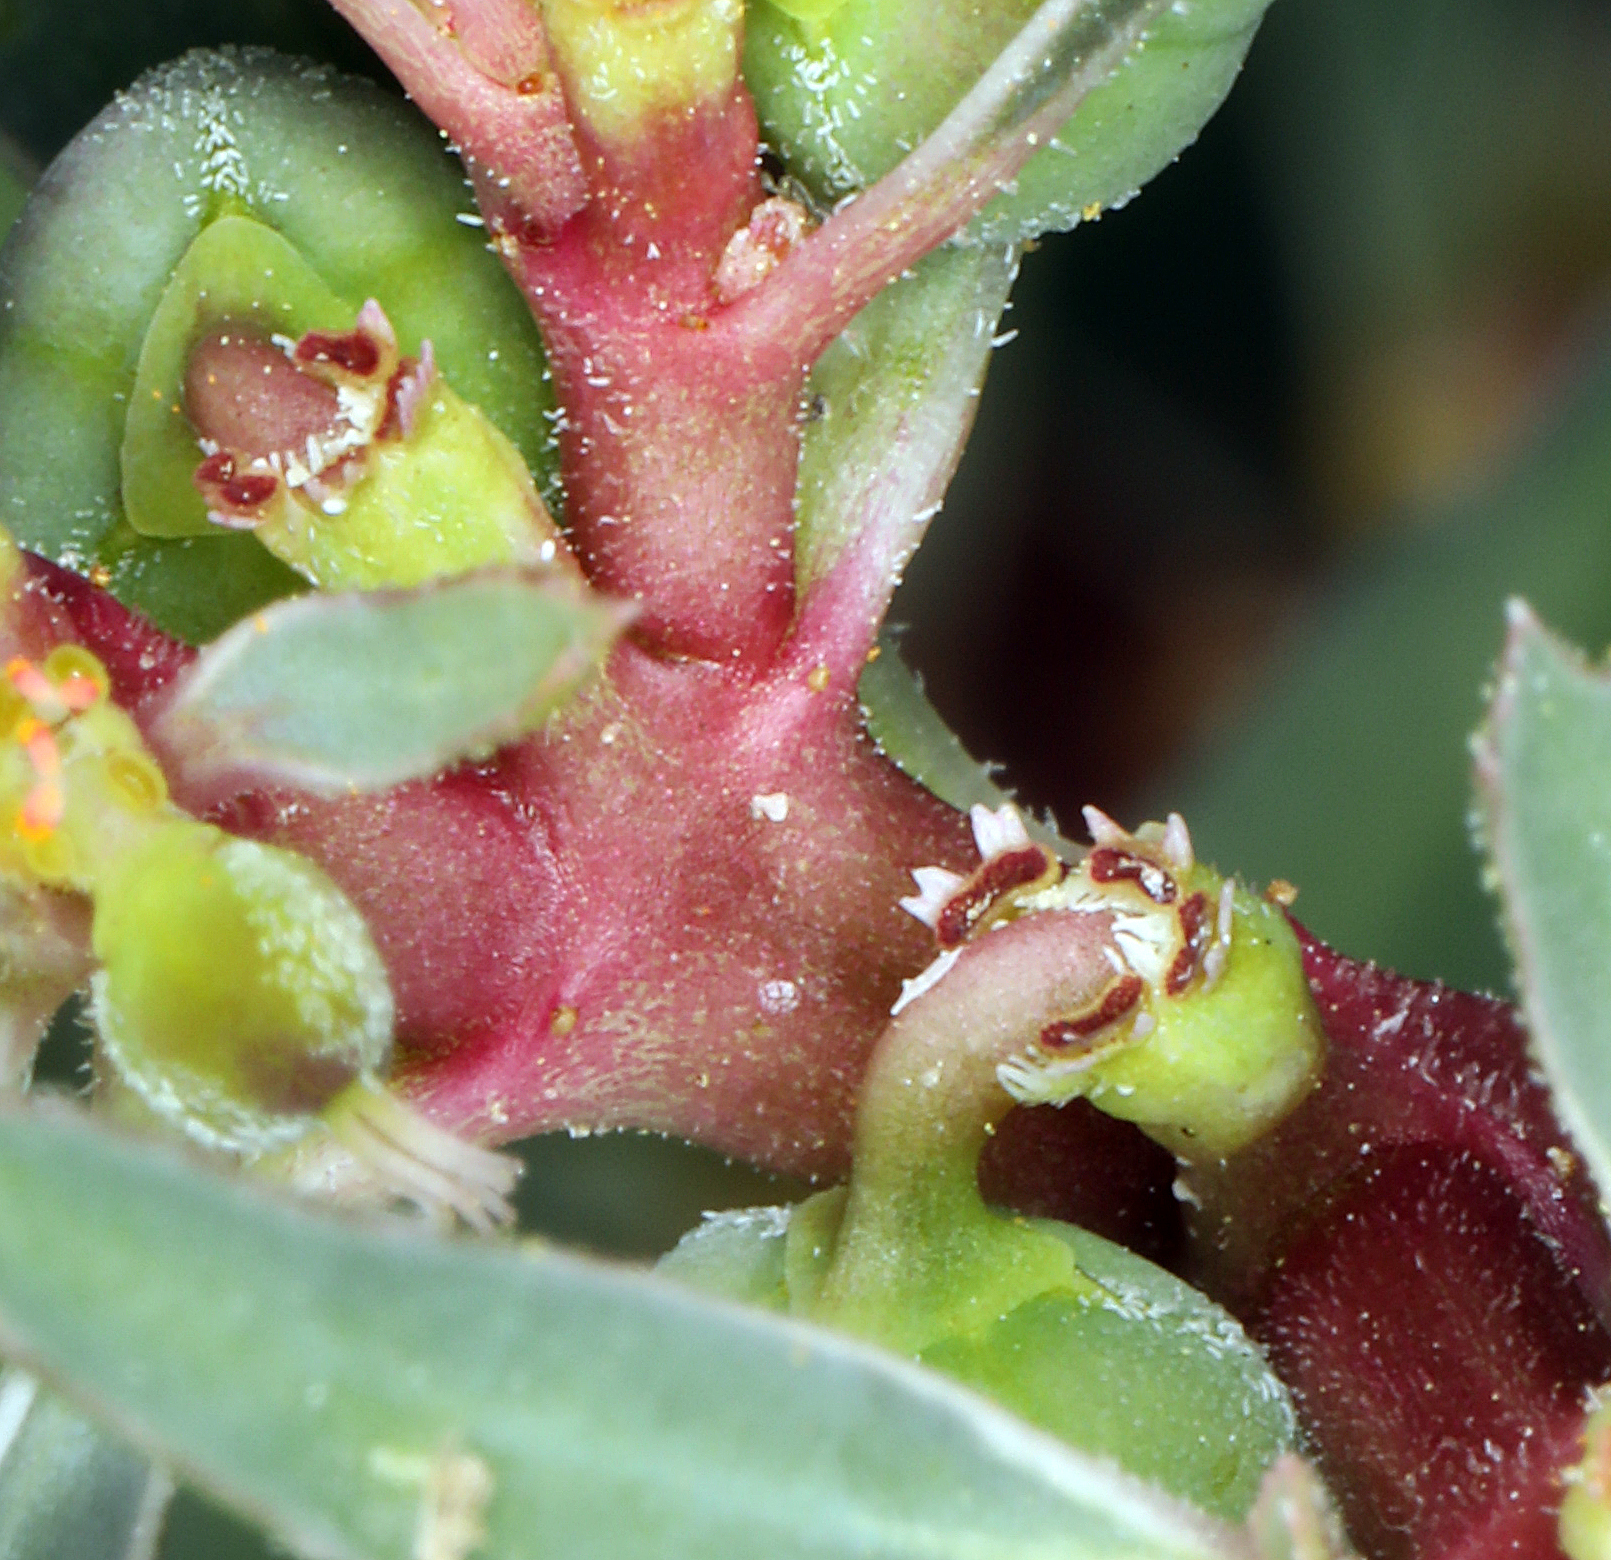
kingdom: Plantae
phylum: Tracheophyta
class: Magnoliopsida
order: Malpighiales
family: Euphorbiaceae
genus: Euphorbia
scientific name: Euphorbia exstipulata
